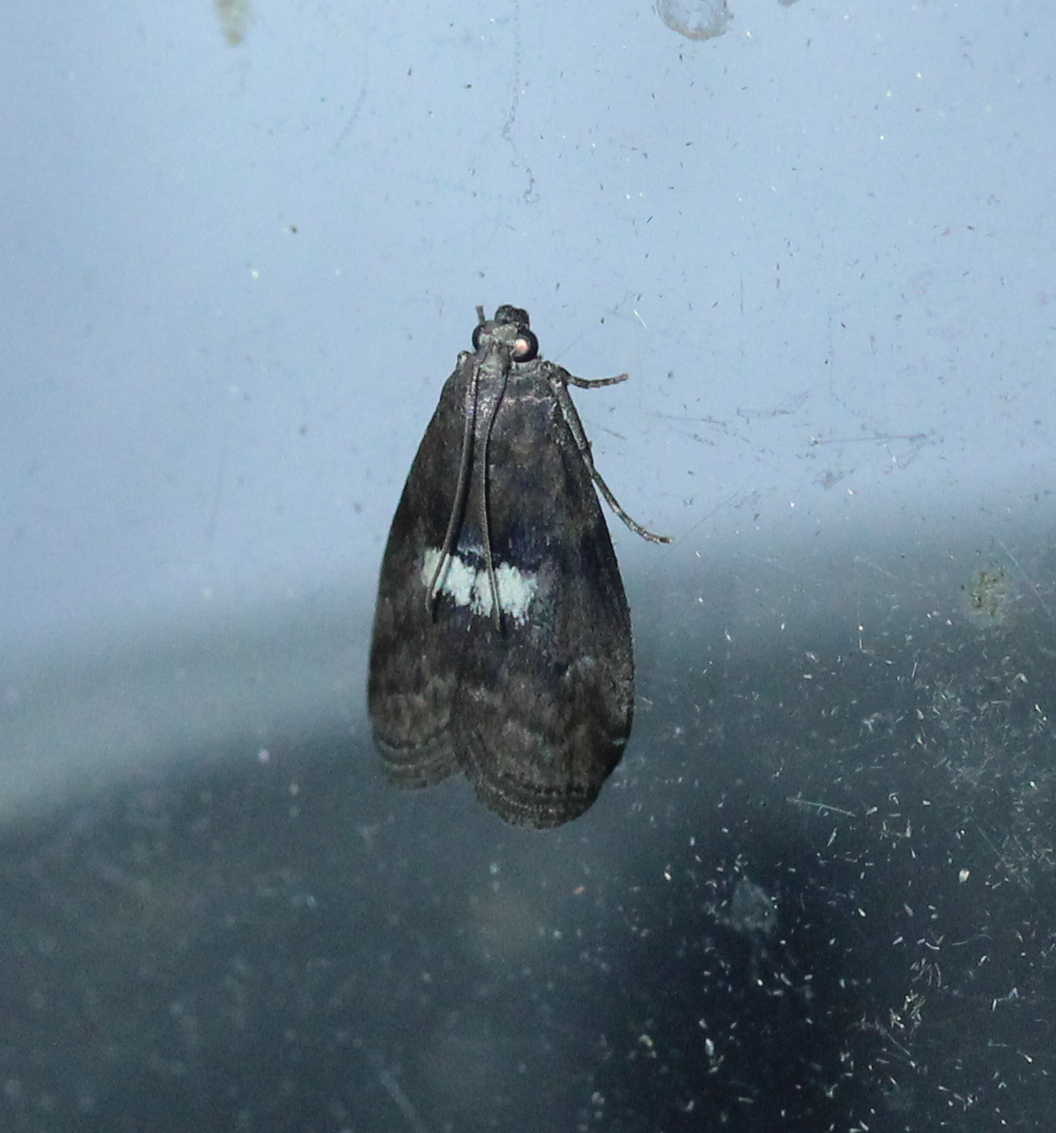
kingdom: Animalia
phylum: Arthropoda
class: Insecta
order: Lepidoptera
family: Pyralidae
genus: Salebriaria
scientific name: Salebriaria engeli
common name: Engel's salebriaria moth
